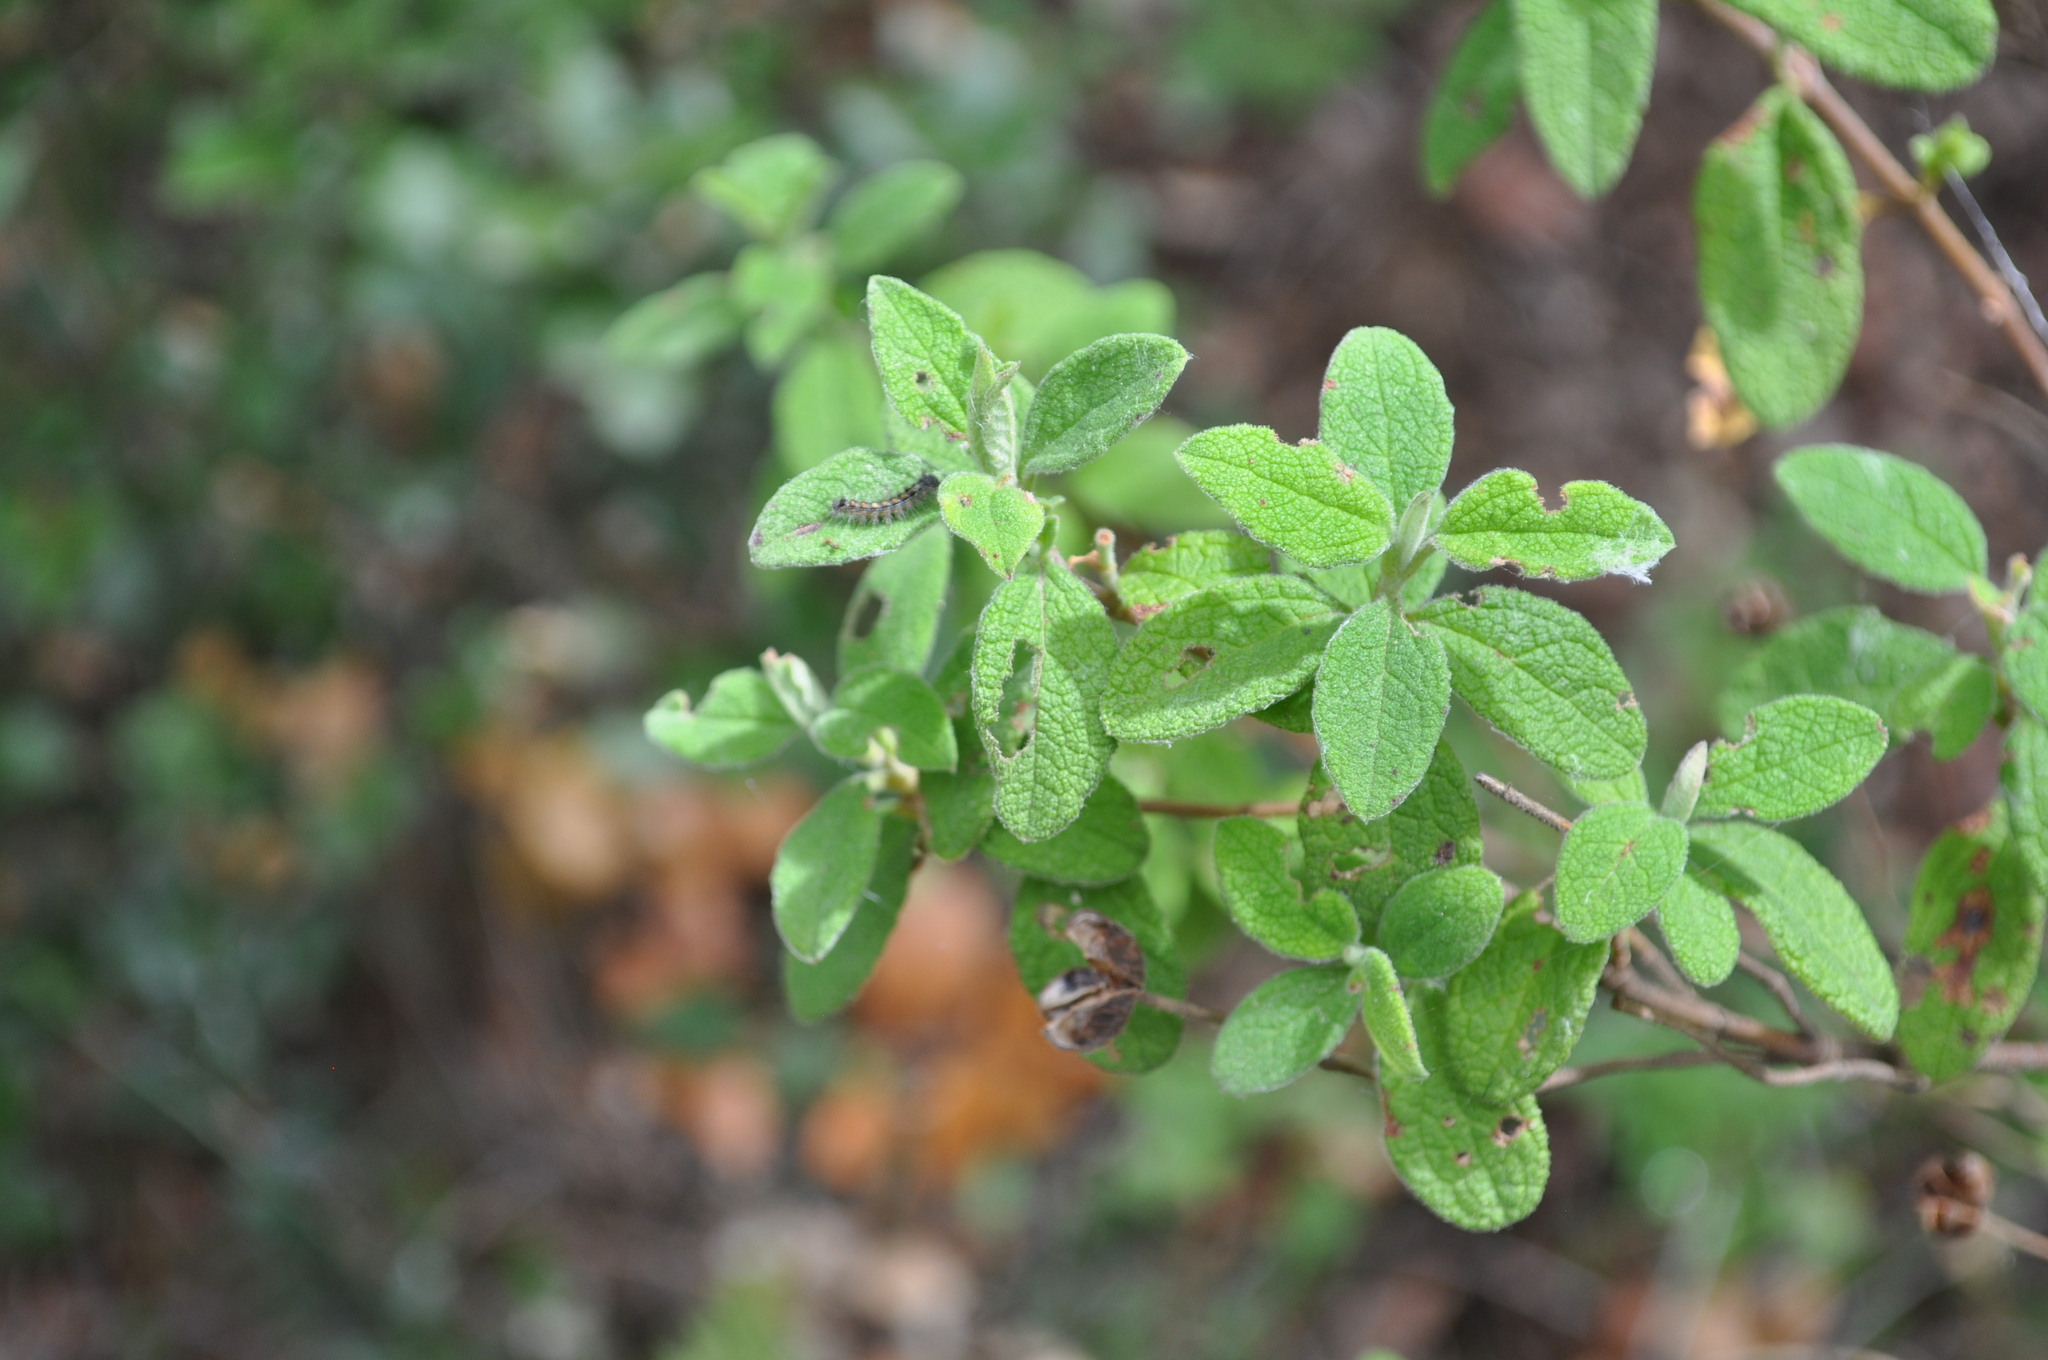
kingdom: Plantae
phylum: Tracheophyta
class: Magnoliopsida
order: Malvales
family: Cistaceae
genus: Cistus
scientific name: Cistus salviifolius
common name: Salvia cistus
